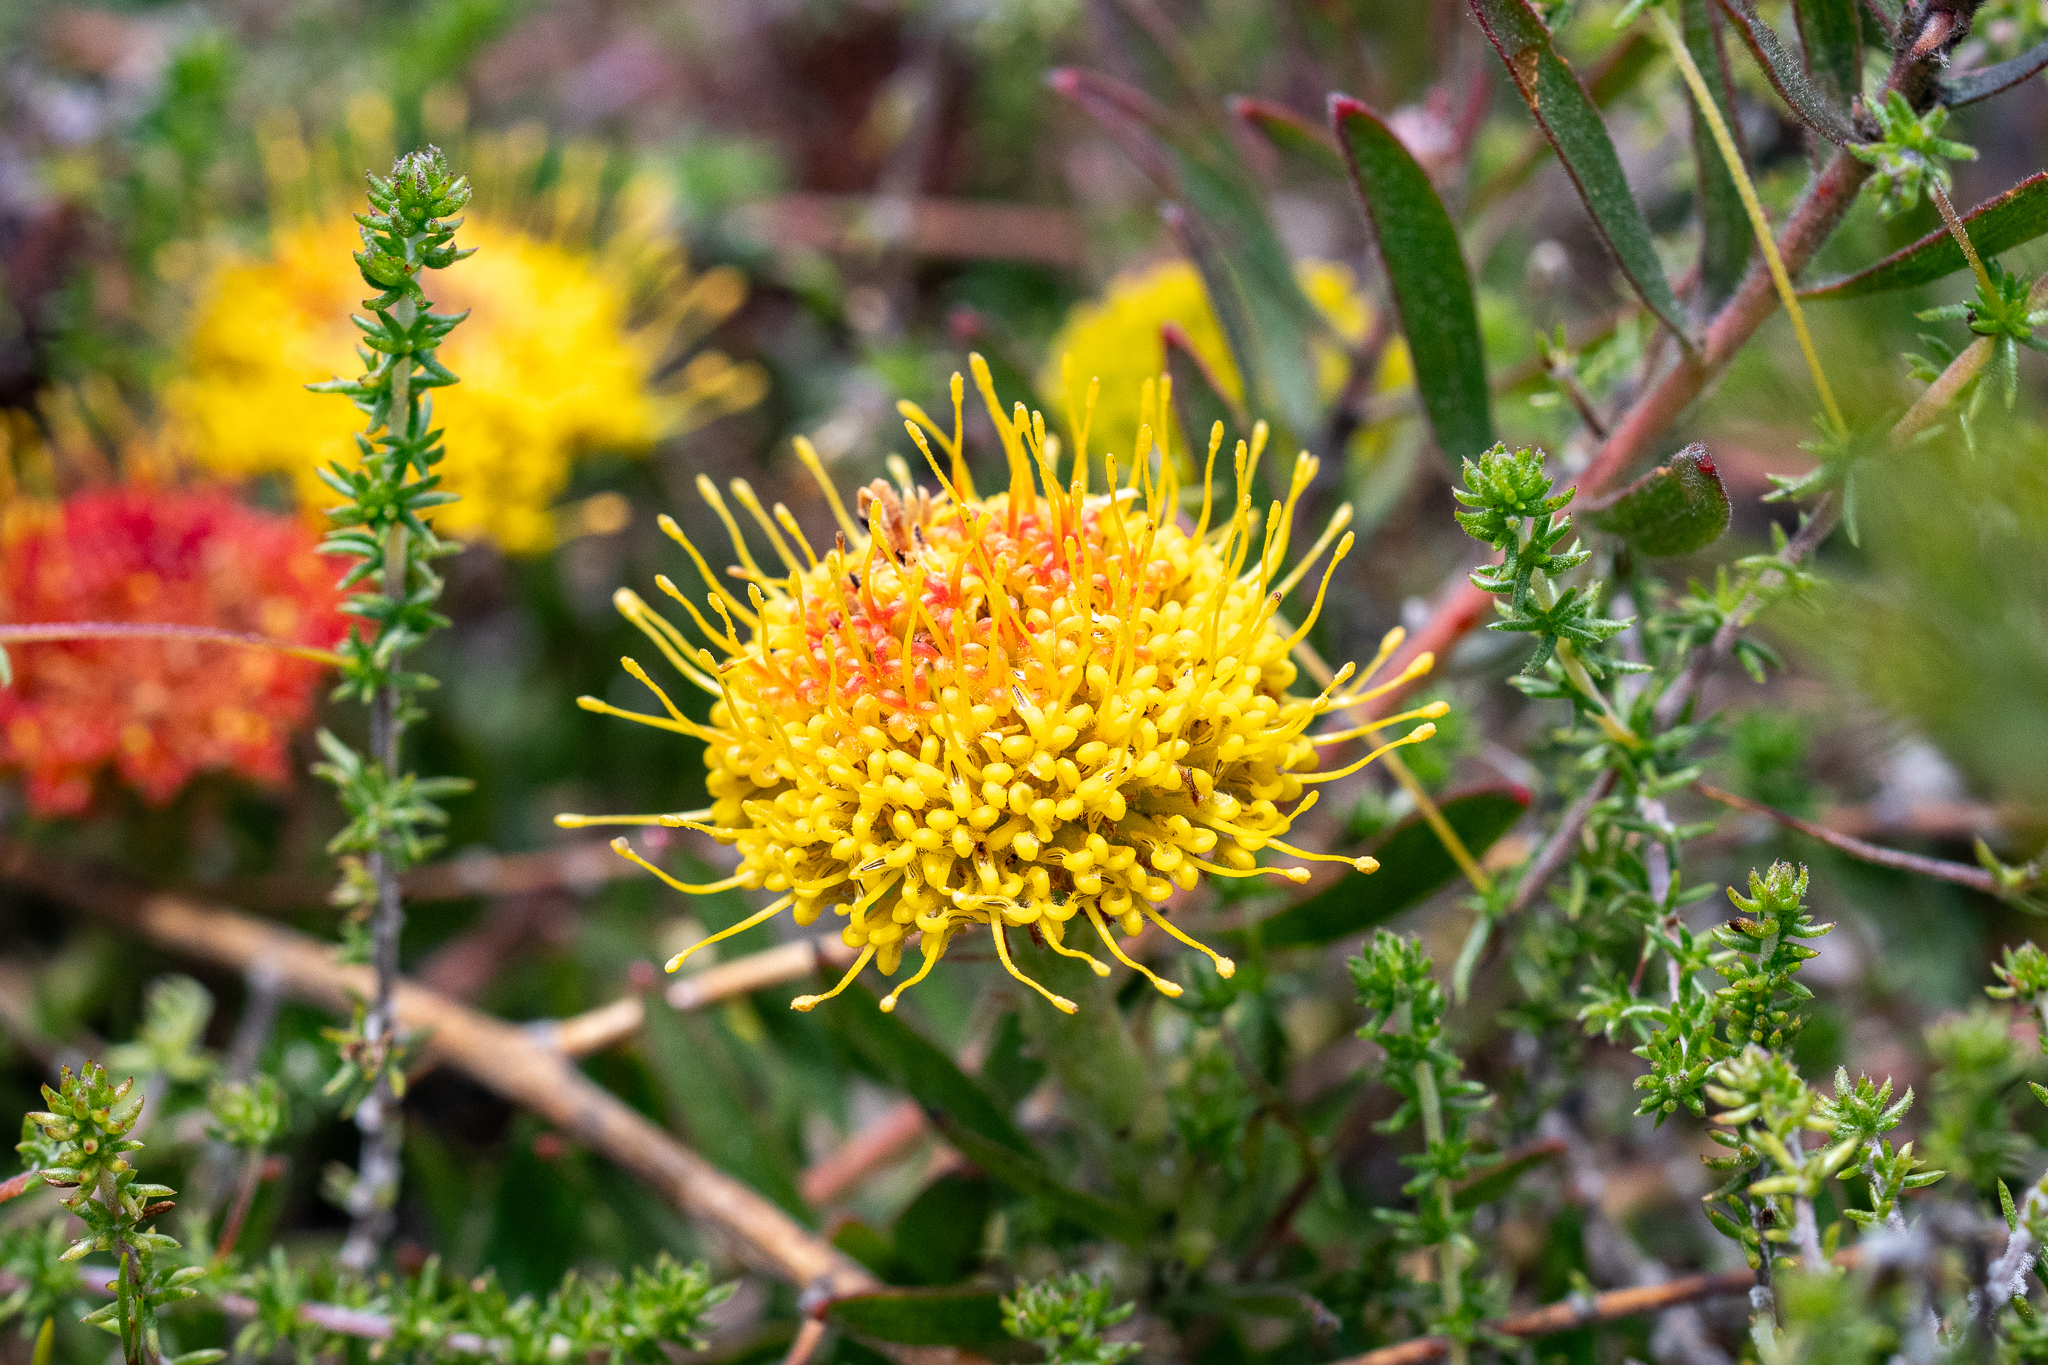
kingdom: Plantae
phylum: Tracheophyta
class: Magnoliopsida
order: Proteales
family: Proteaceae
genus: Leucospermum
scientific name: Leucospermum prostratum
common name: Yellow-trailing pincushion
